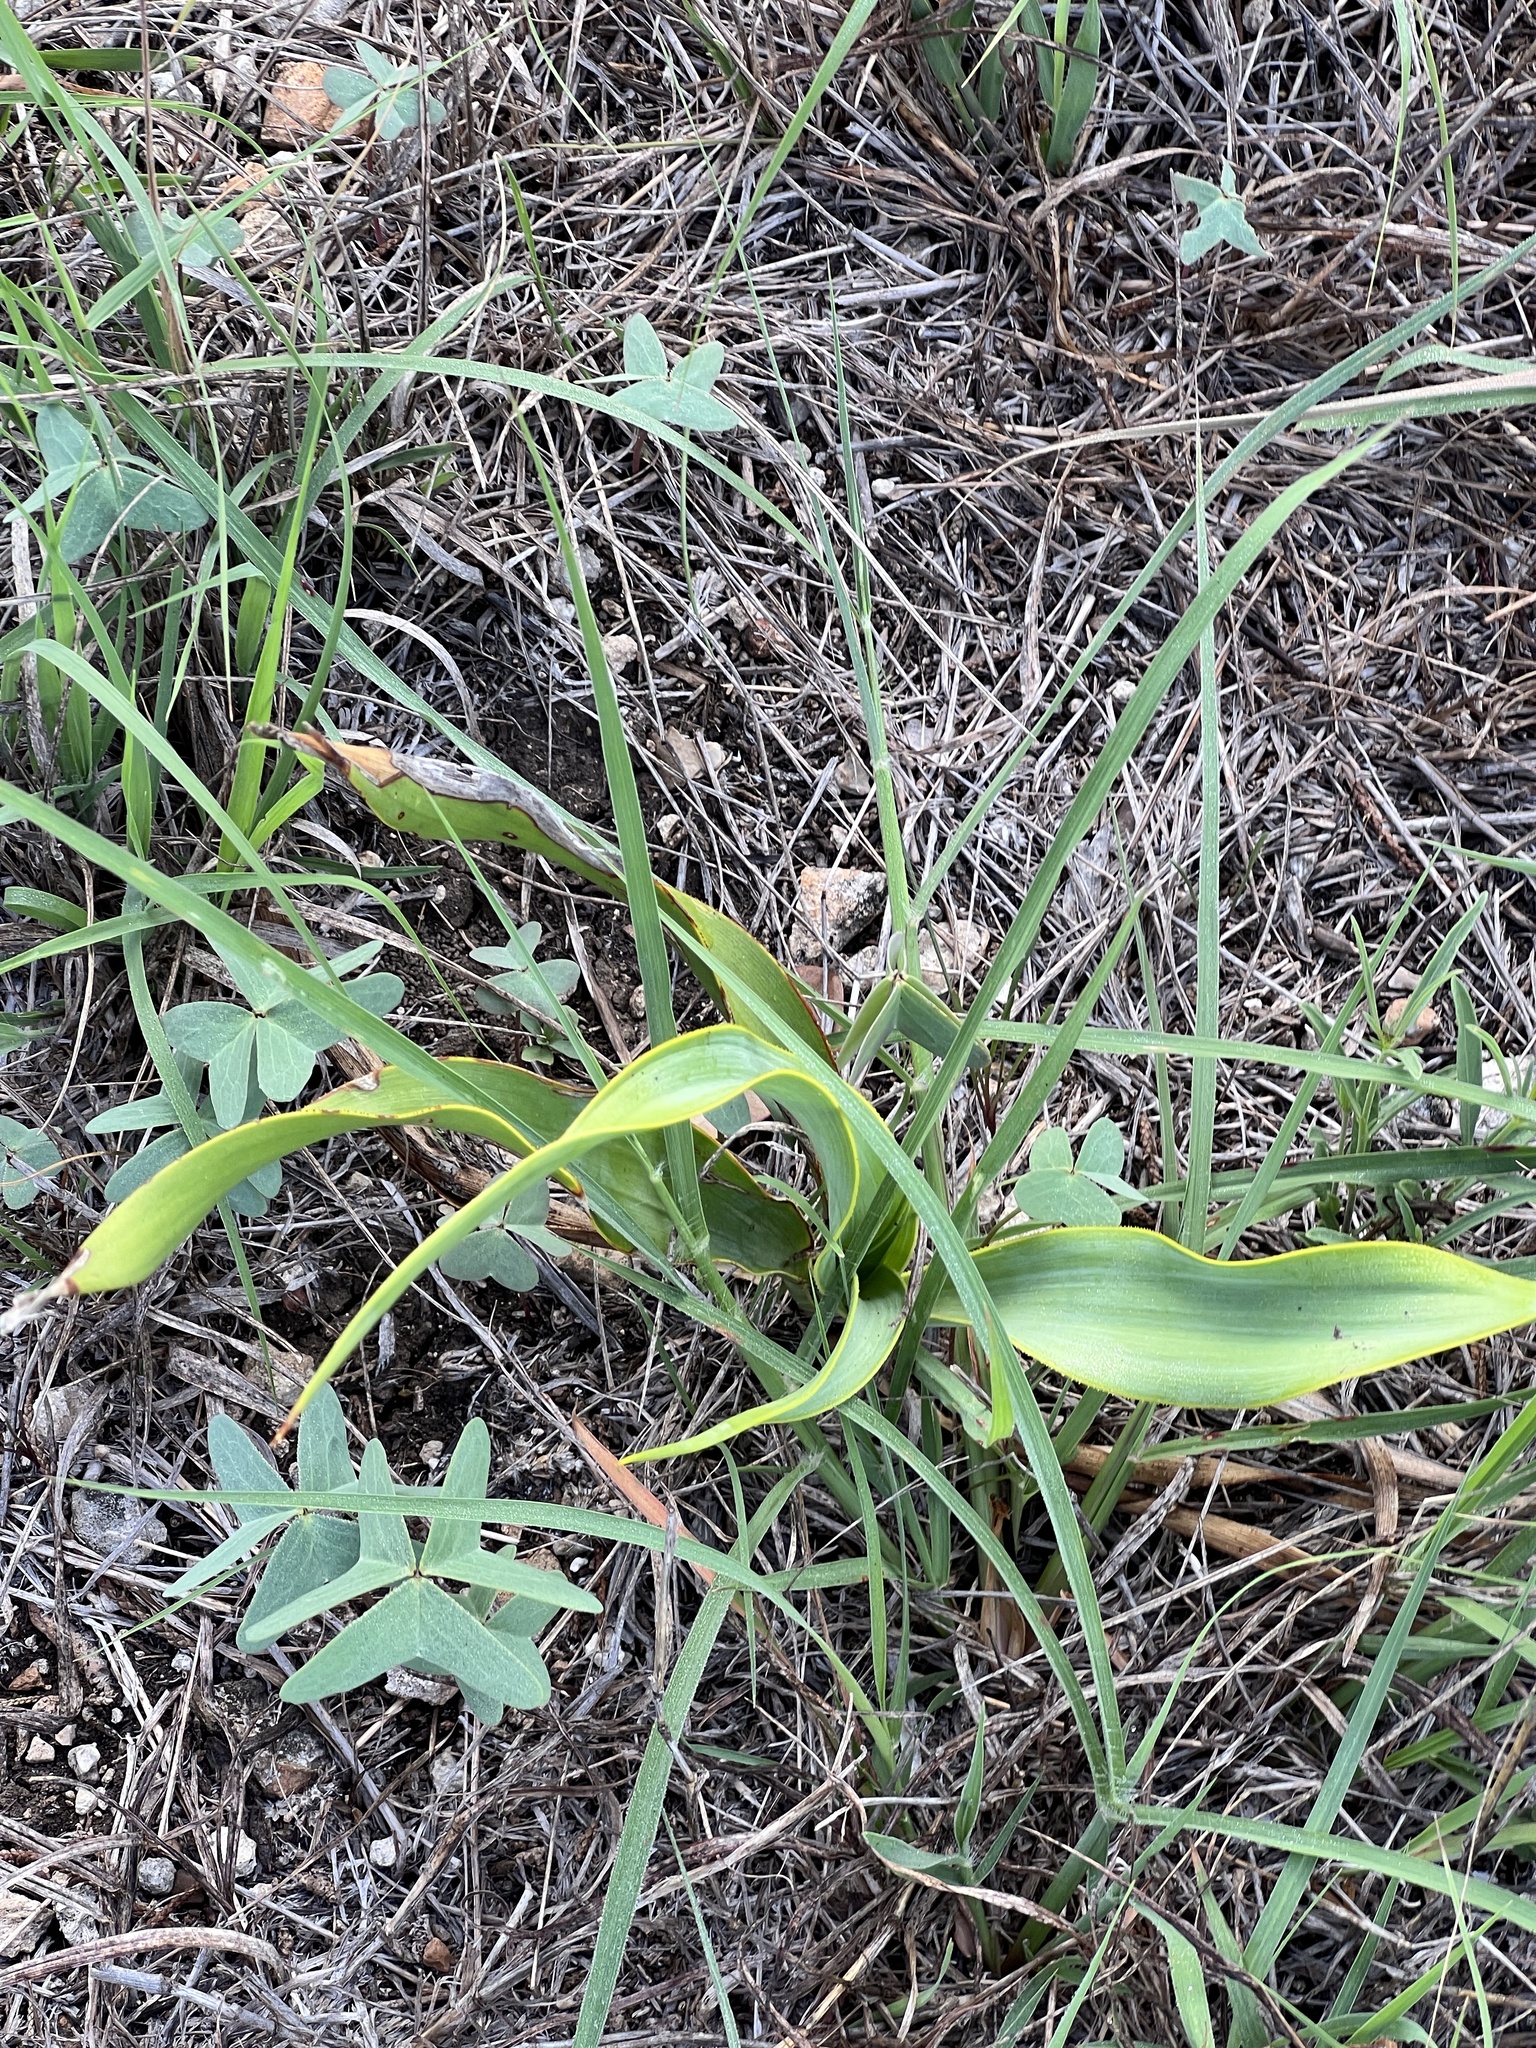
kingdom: Plantae
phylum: Tracheophyta
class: Liliopsida
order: Asparagales
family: Asparagaceae
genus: Yucca
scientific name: Yucca rupicola
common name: Twisted-leaf spanish-dagger
